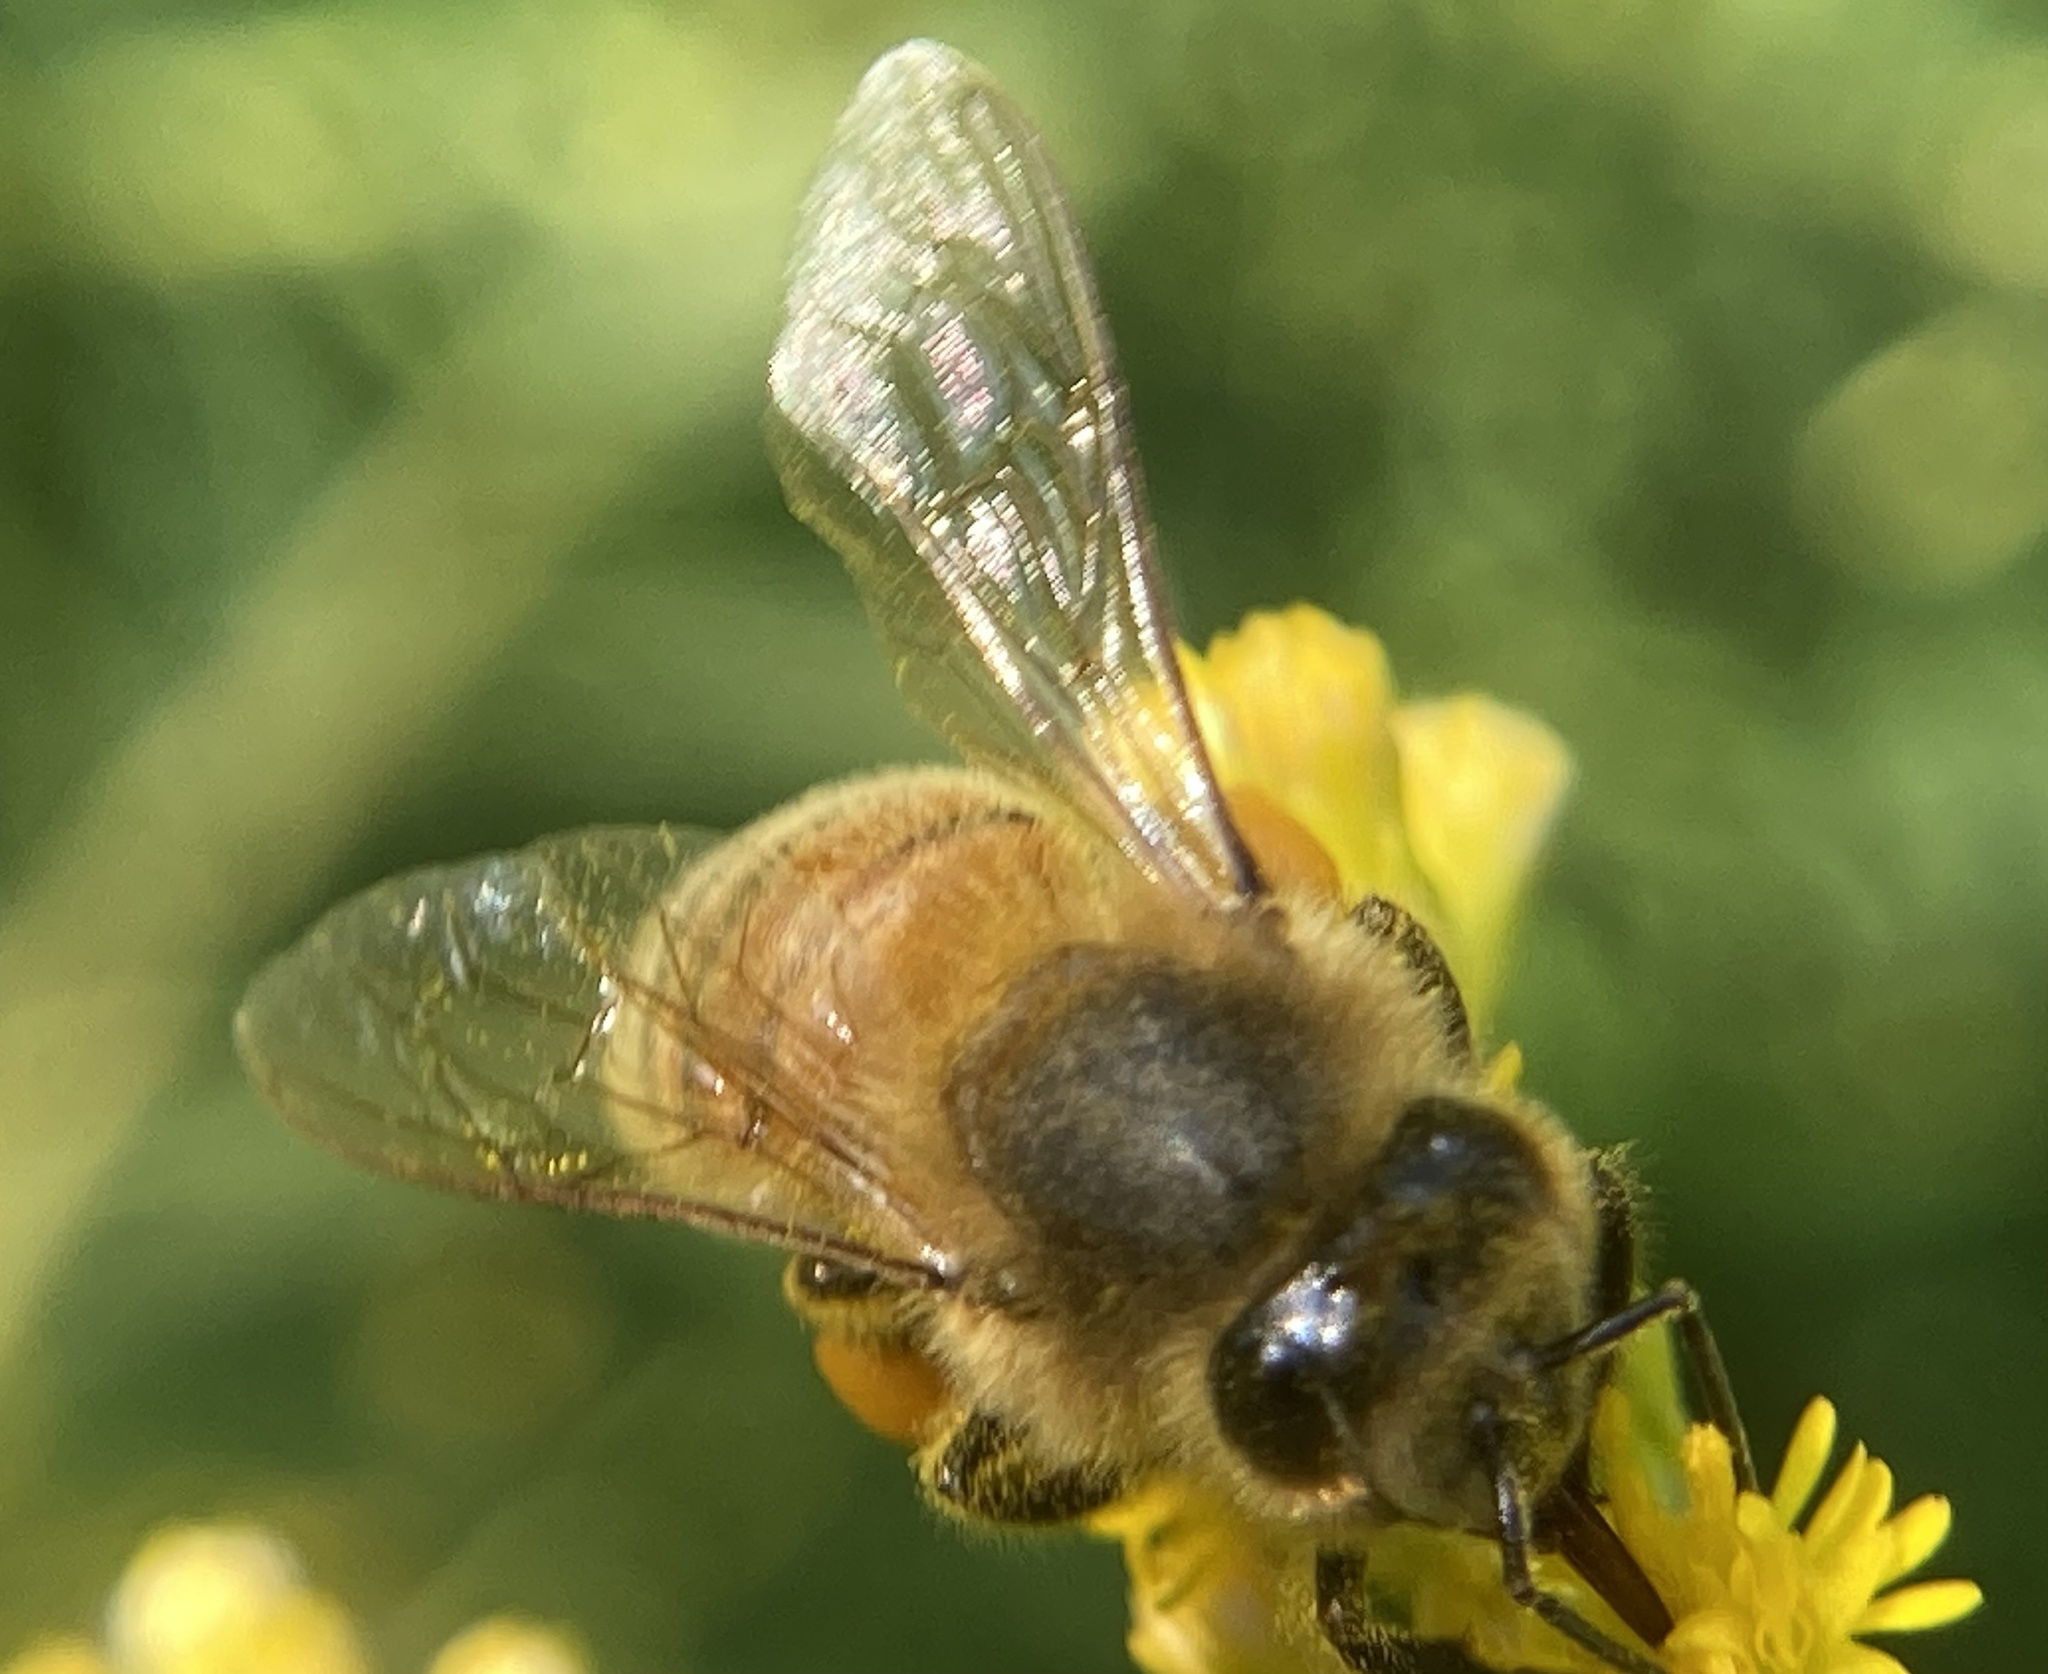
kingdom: Animalia
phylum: Arthropoda
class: Insecta
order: Hymenoptera
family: Apidae
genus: Apis
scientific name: Apis mellifera
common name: Honey bee
